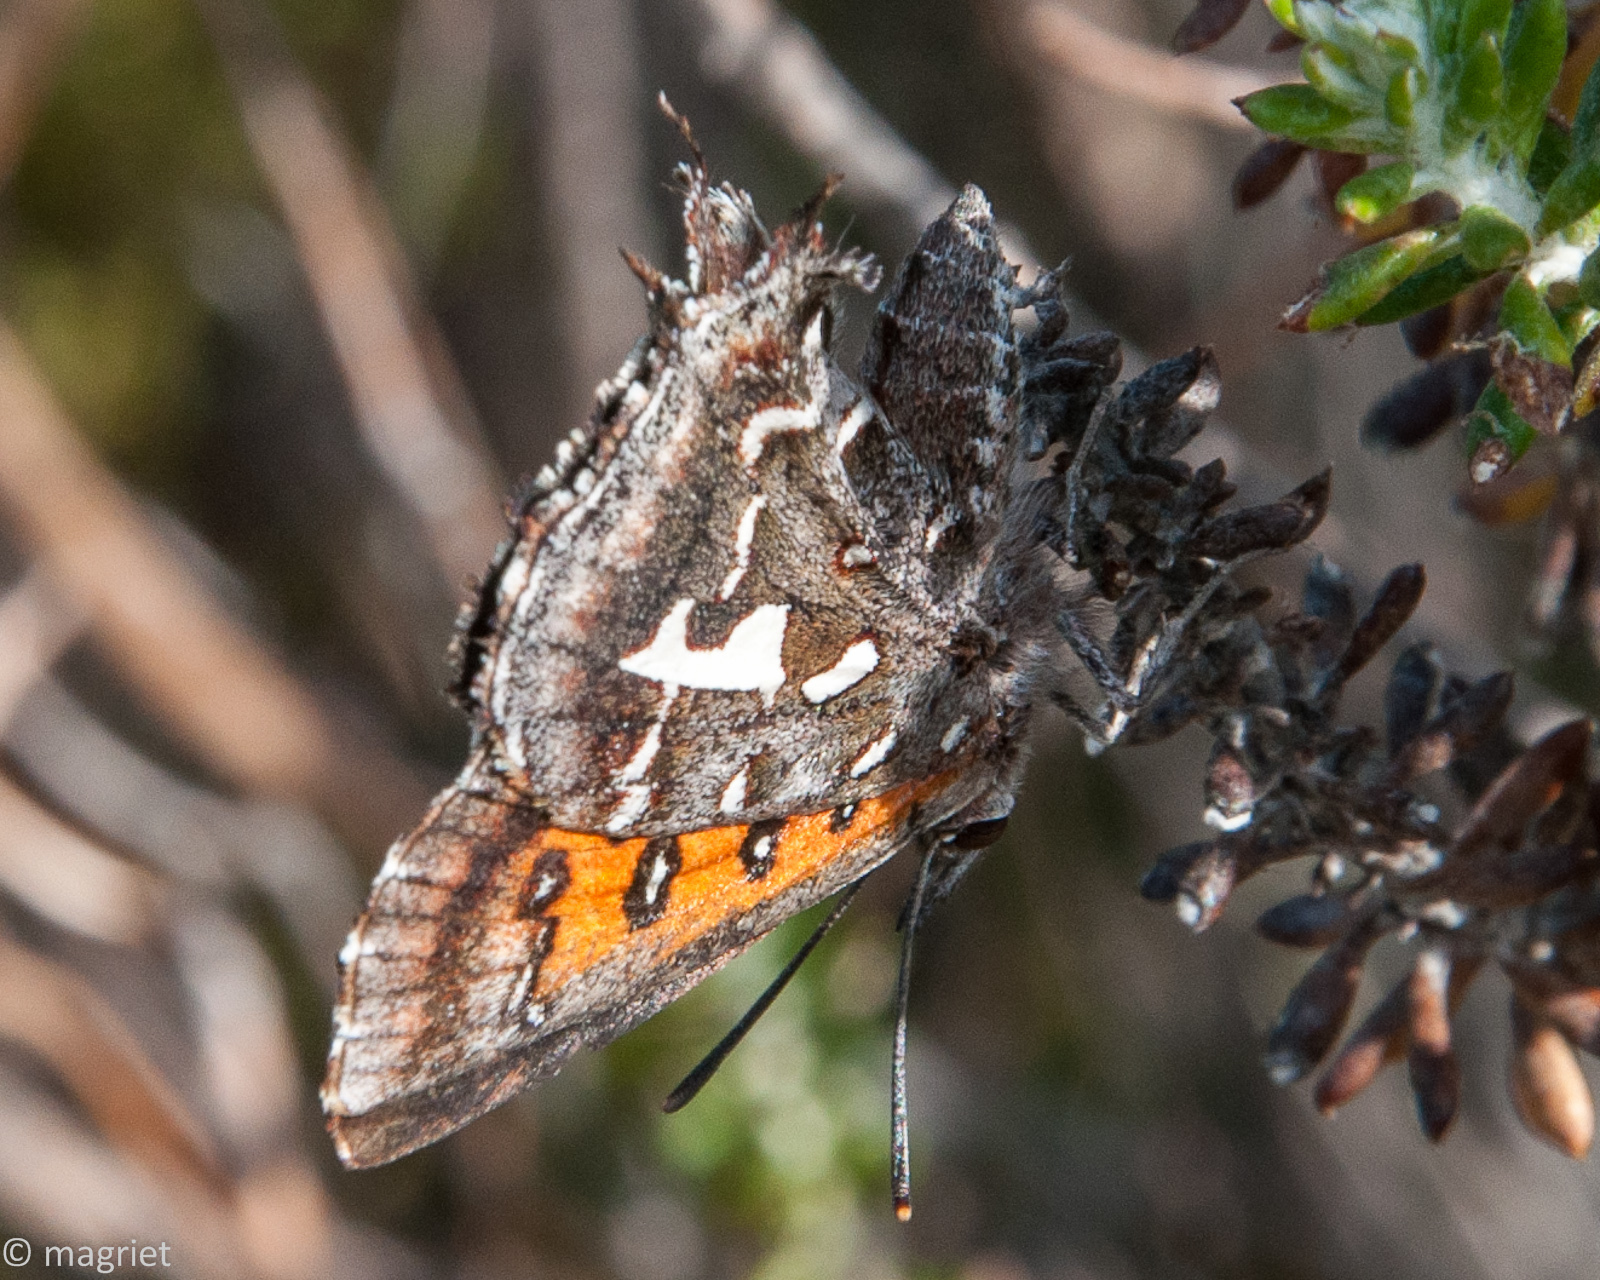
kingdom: Animalia
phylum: Arthropoda
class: Insecta
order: Lepidoptera
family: Lycaenidae
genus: Phasis
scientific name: Phasis thero
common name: Silver arrowhead
